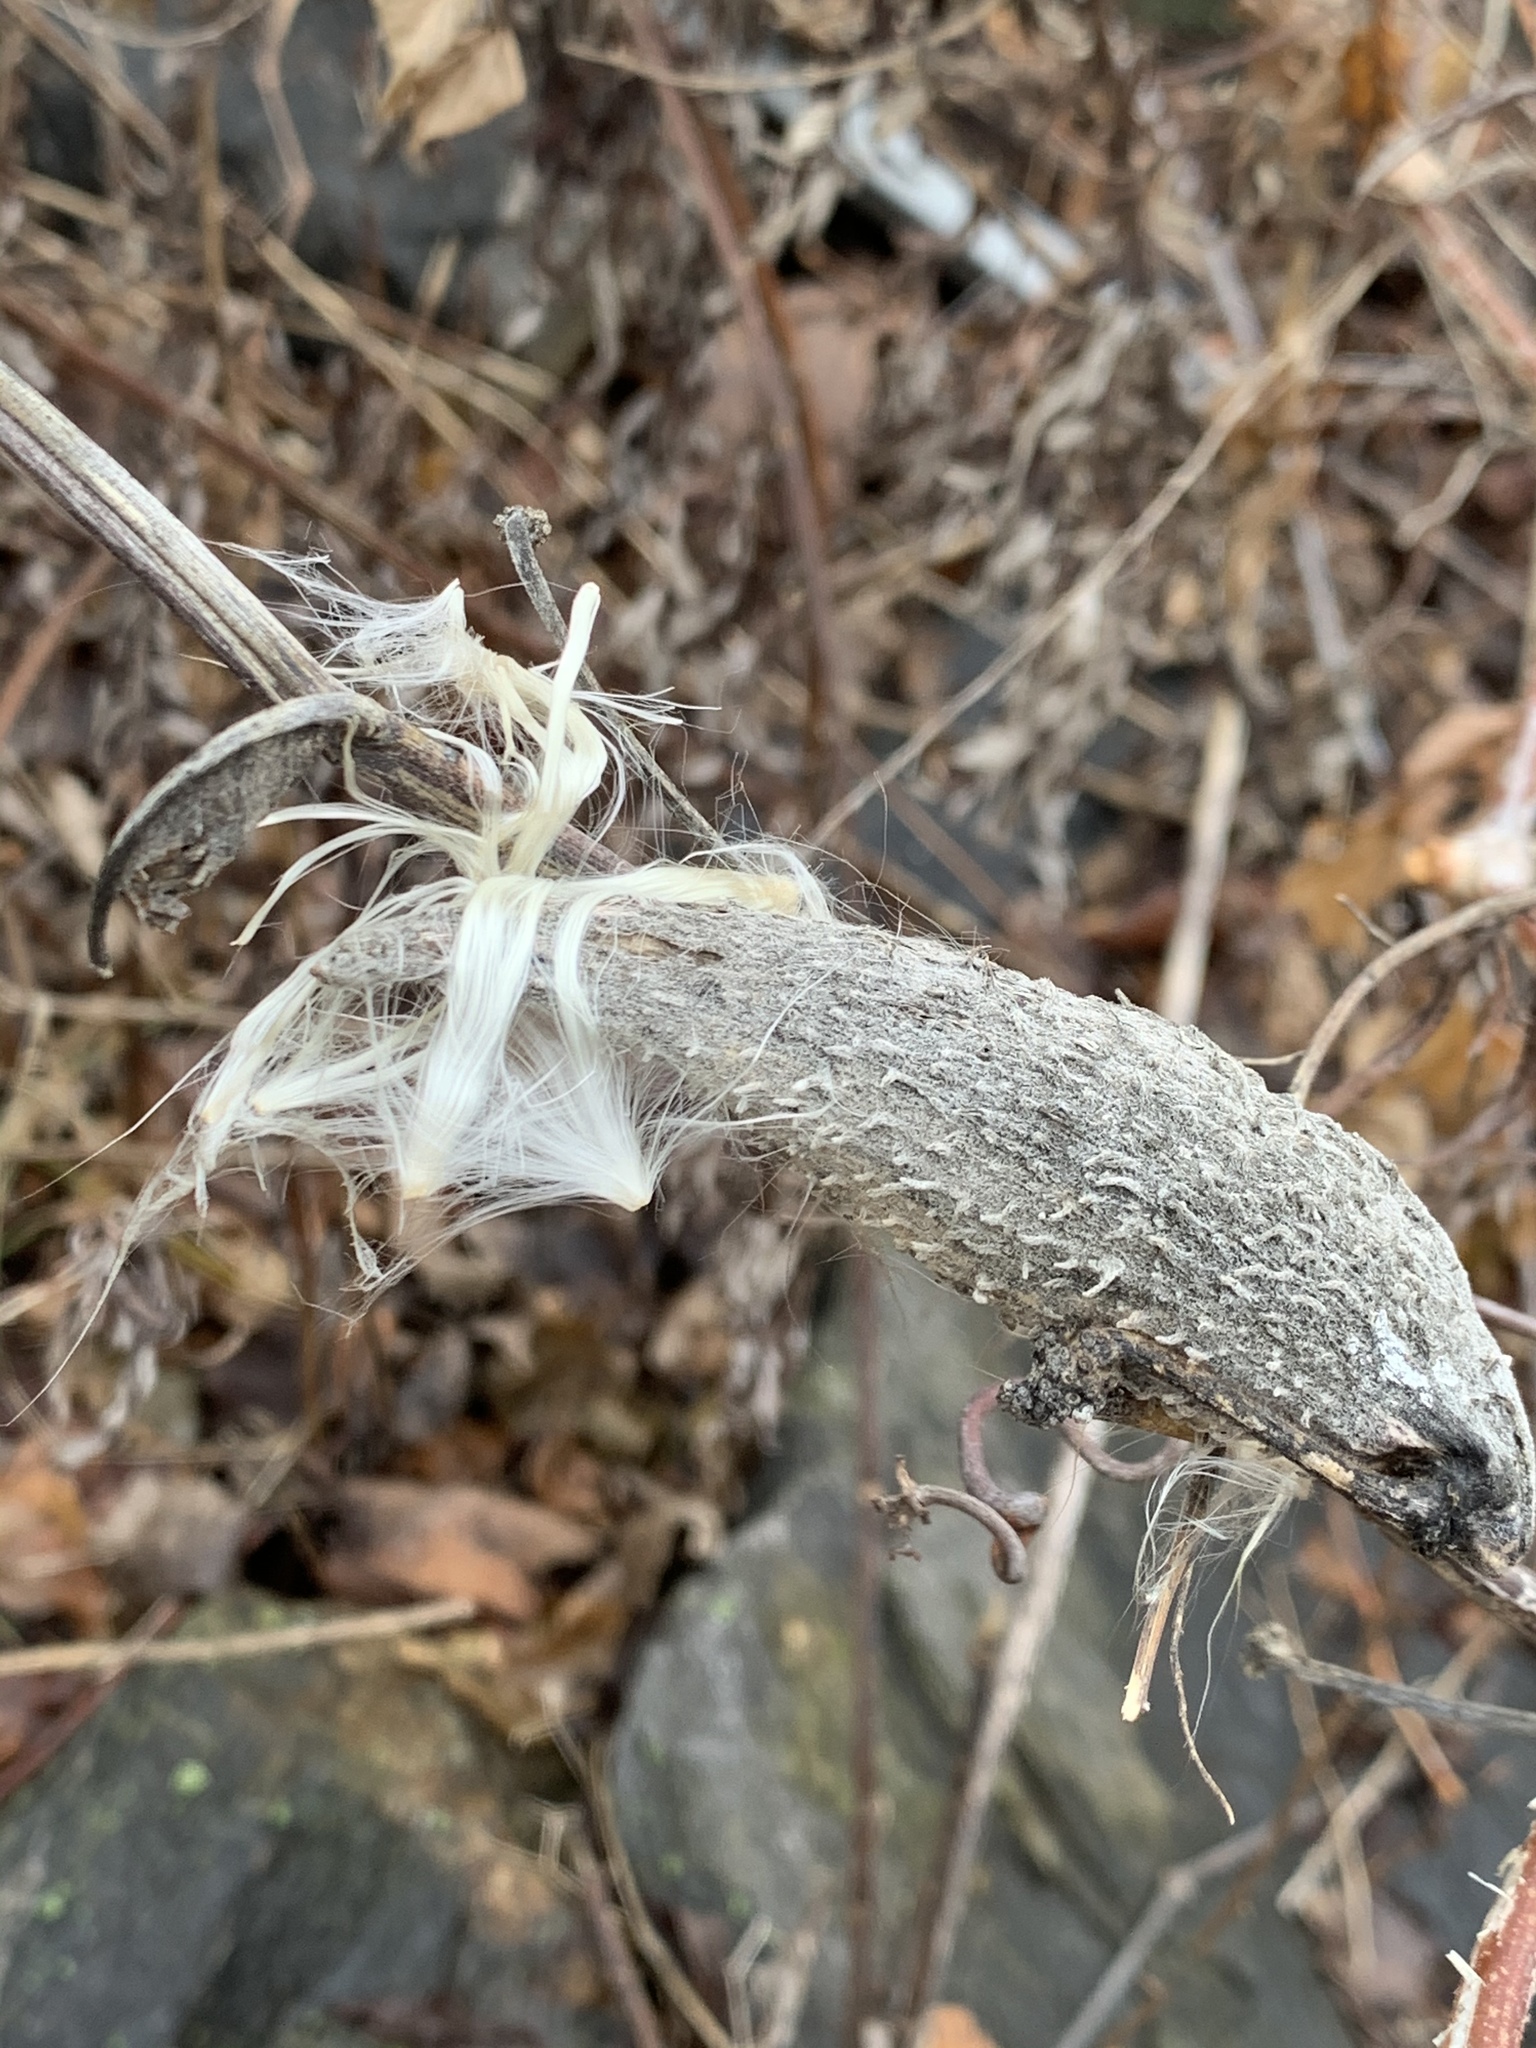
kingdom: Plantae
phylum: Tracheophyta
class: Magnoliopsida
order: Gentianales
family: Apocynaceae
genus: Asclepias
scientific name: Asclepias syriaca
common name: Common milkweed
